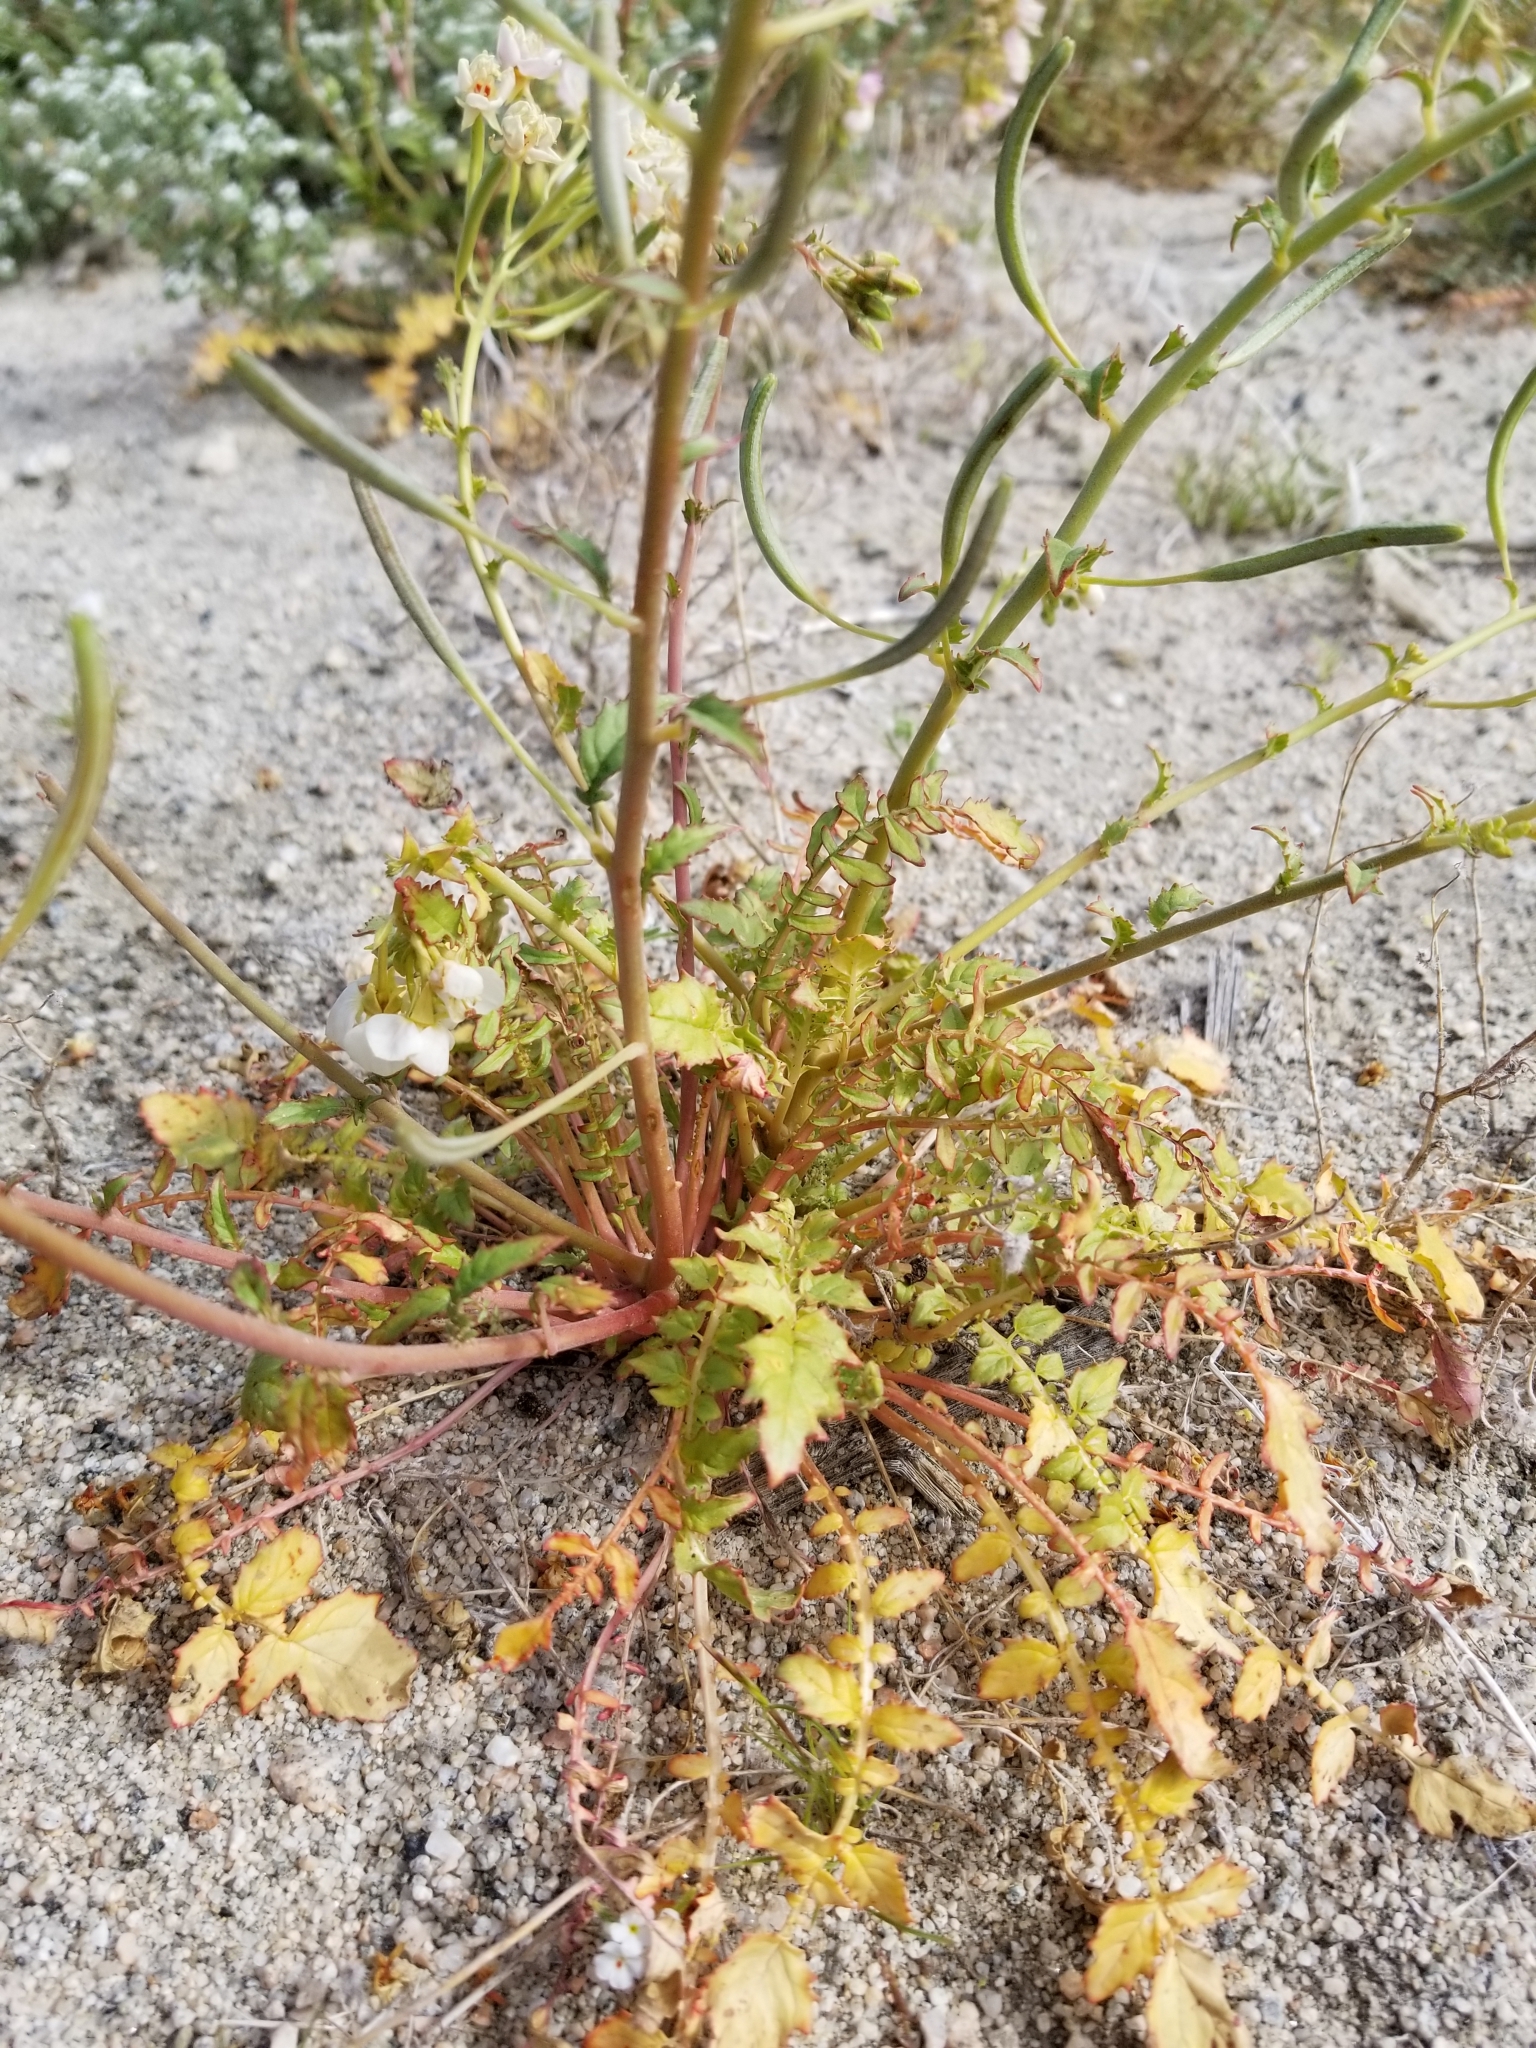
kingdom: Plantae
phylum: Tracheophyta
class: Magnoliopsida
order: Myrtales
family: Onagraceae
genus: Chylismia
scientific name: Chylismia claviformis
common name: Browneyes
